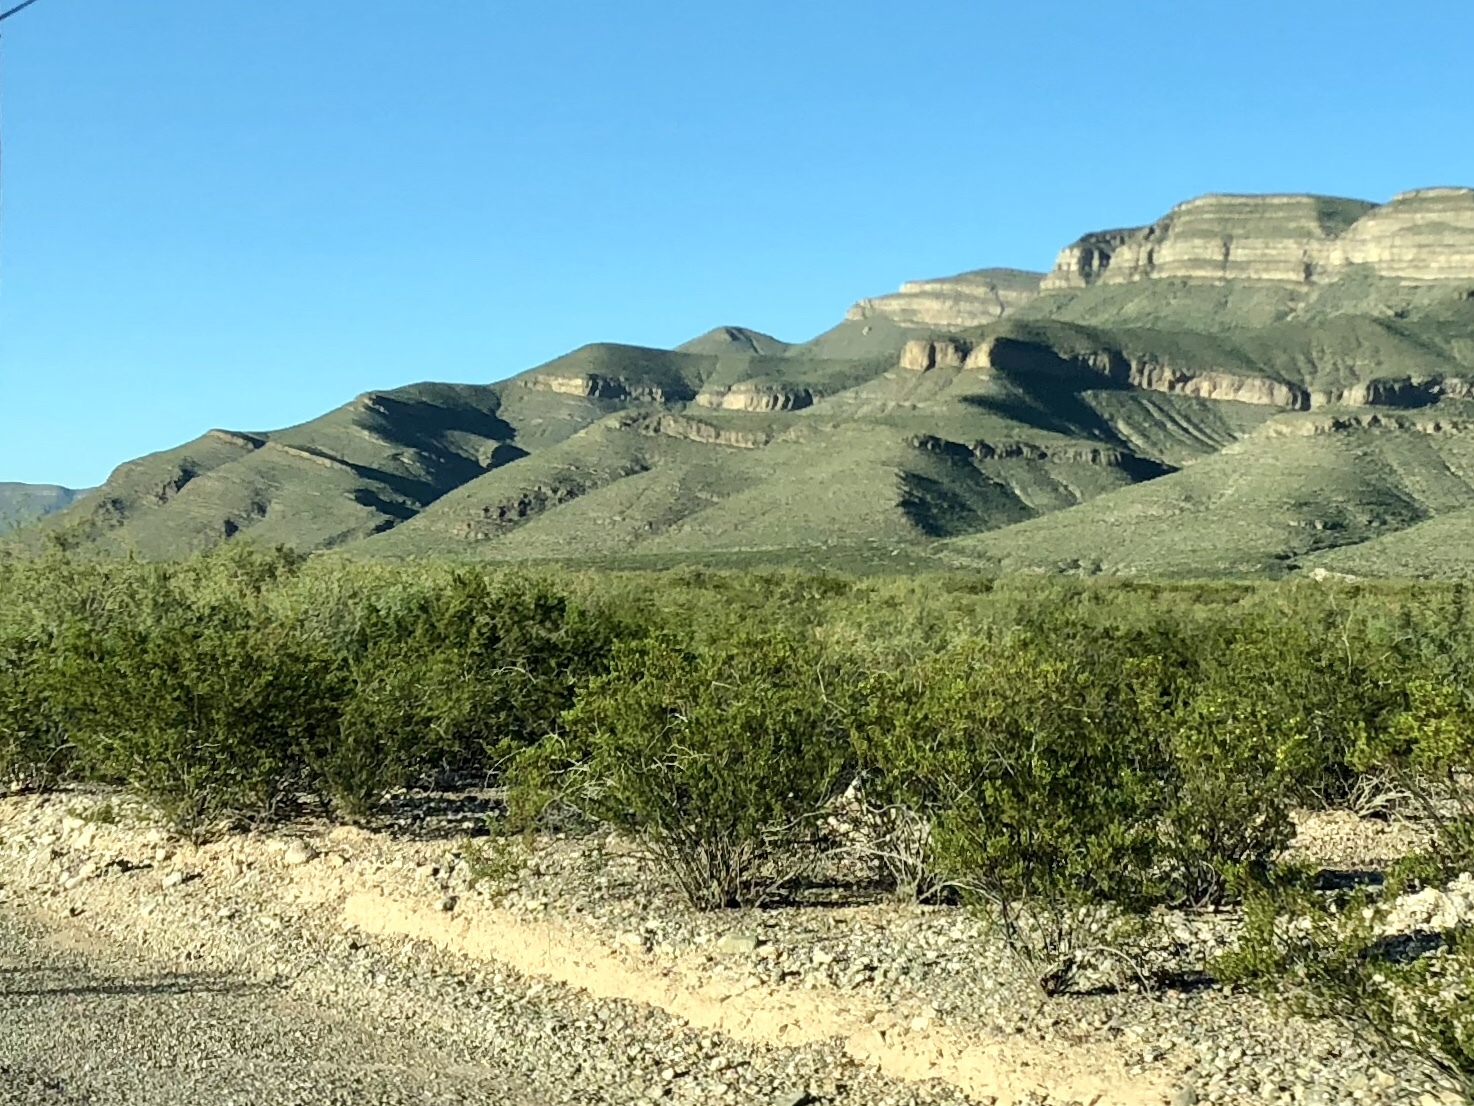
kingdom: Plantae
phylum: Tracheophyta
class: Magnoliopsida
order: Zygophyllales
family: Zygophyllaceae
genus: Larrea
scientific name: Larrea tridentata
